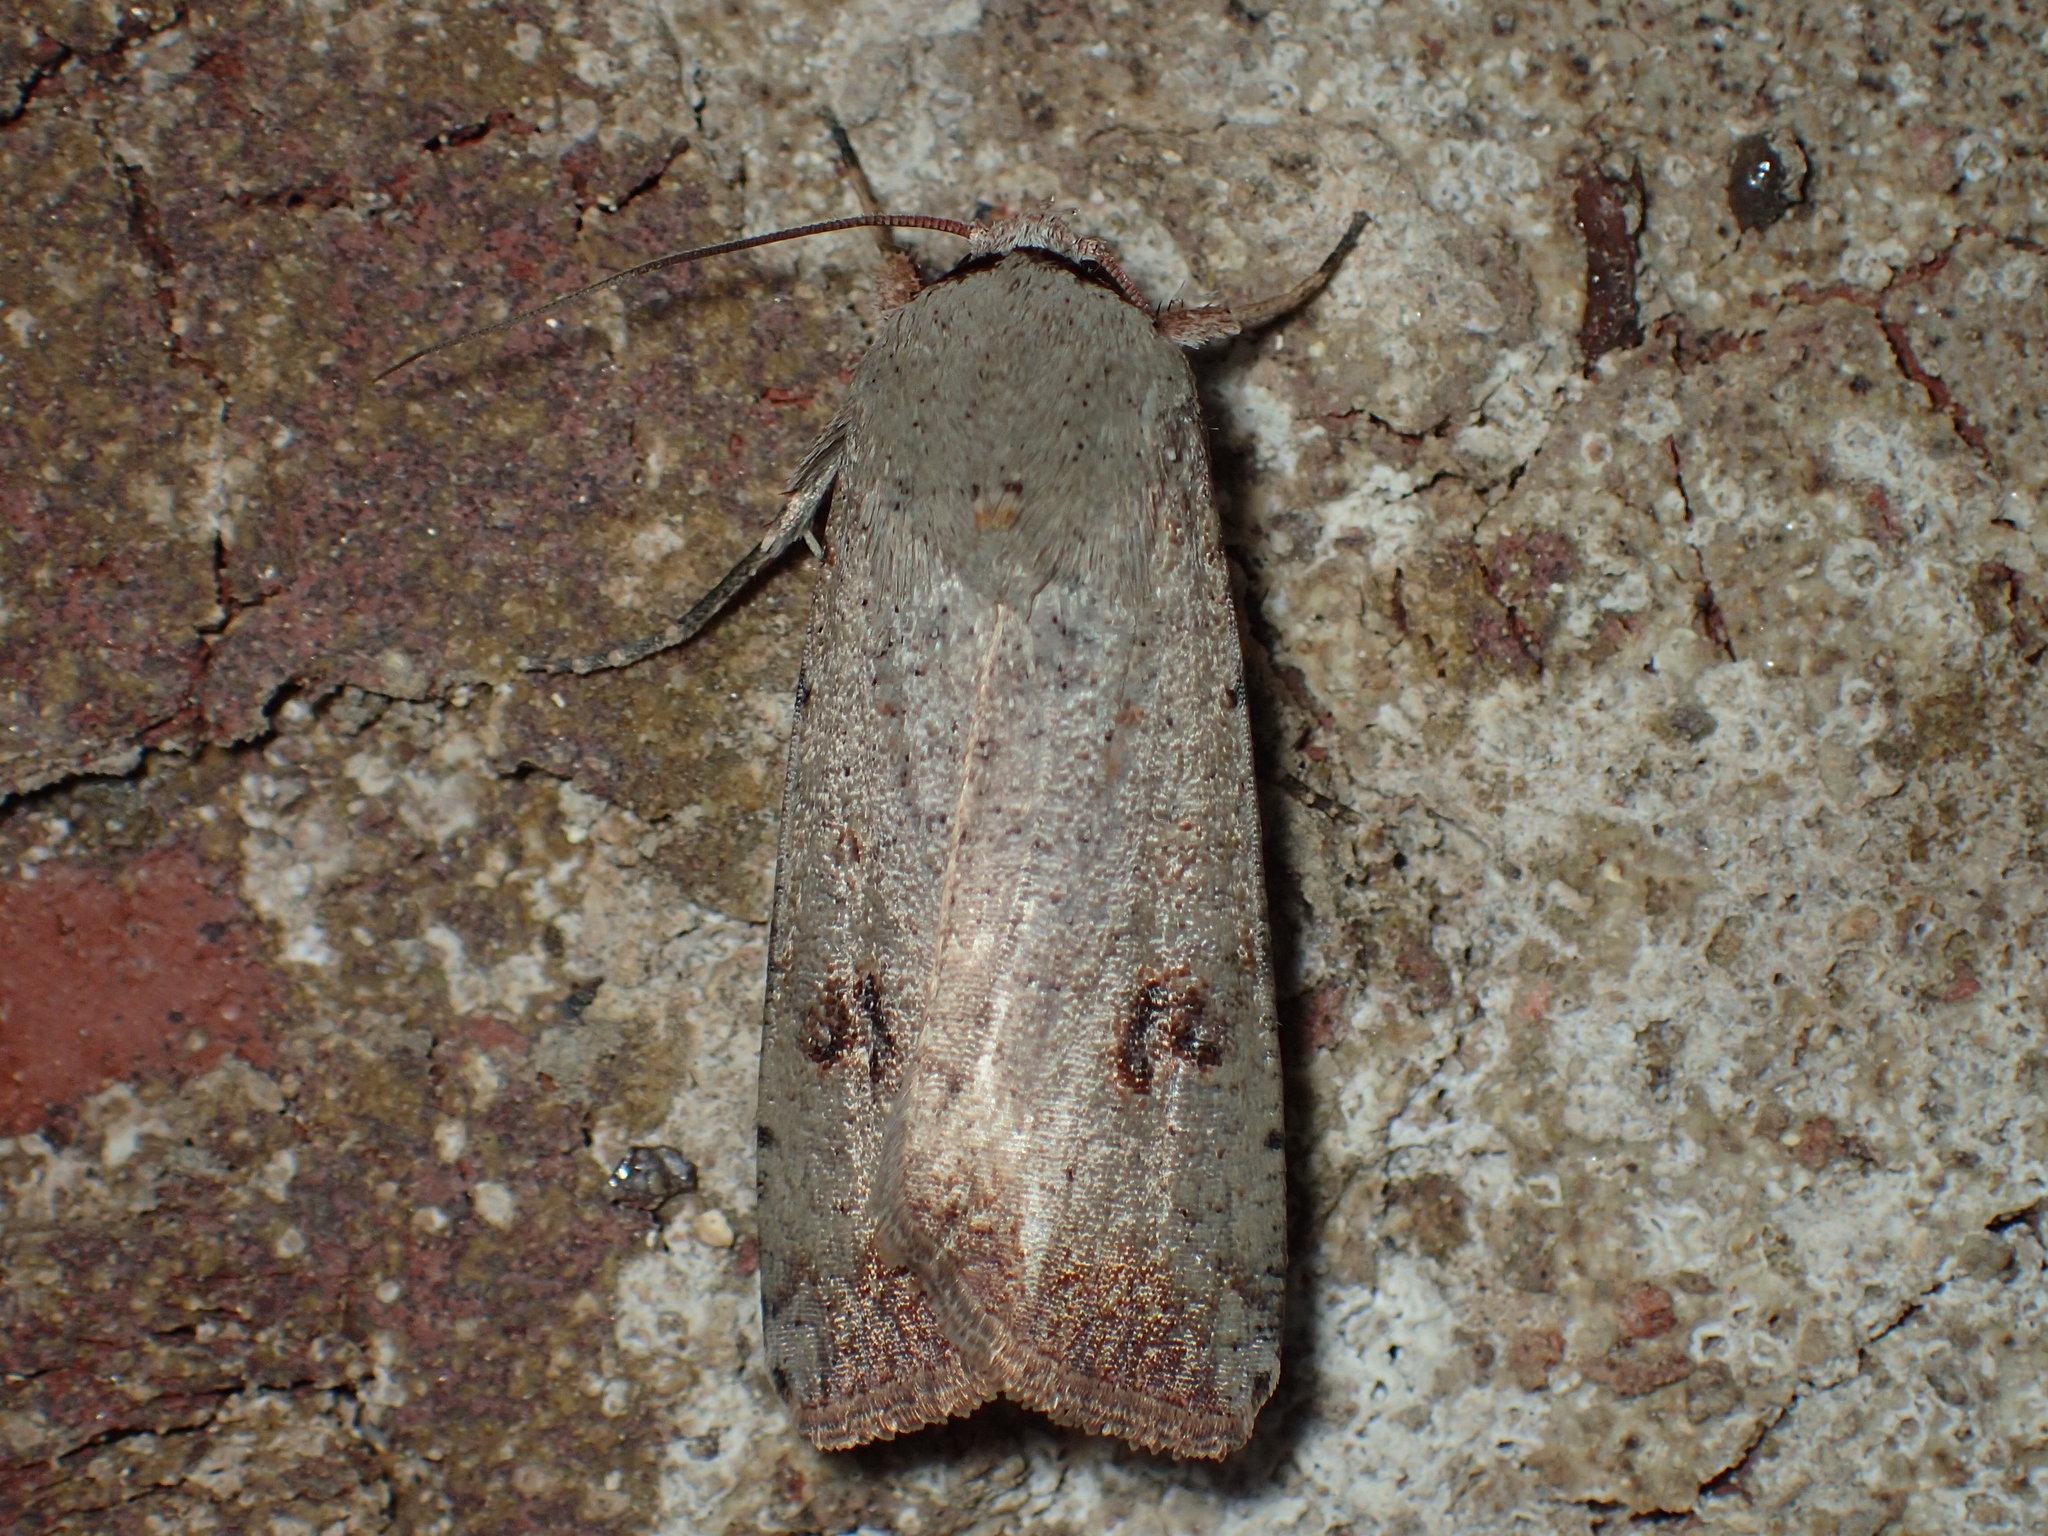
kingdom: Animalia
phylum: Arthropoda
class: Insecta
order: Lepidoptera
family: Noctuidae
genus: Anicla
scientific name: Anicla infecta
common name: Green cutworm
